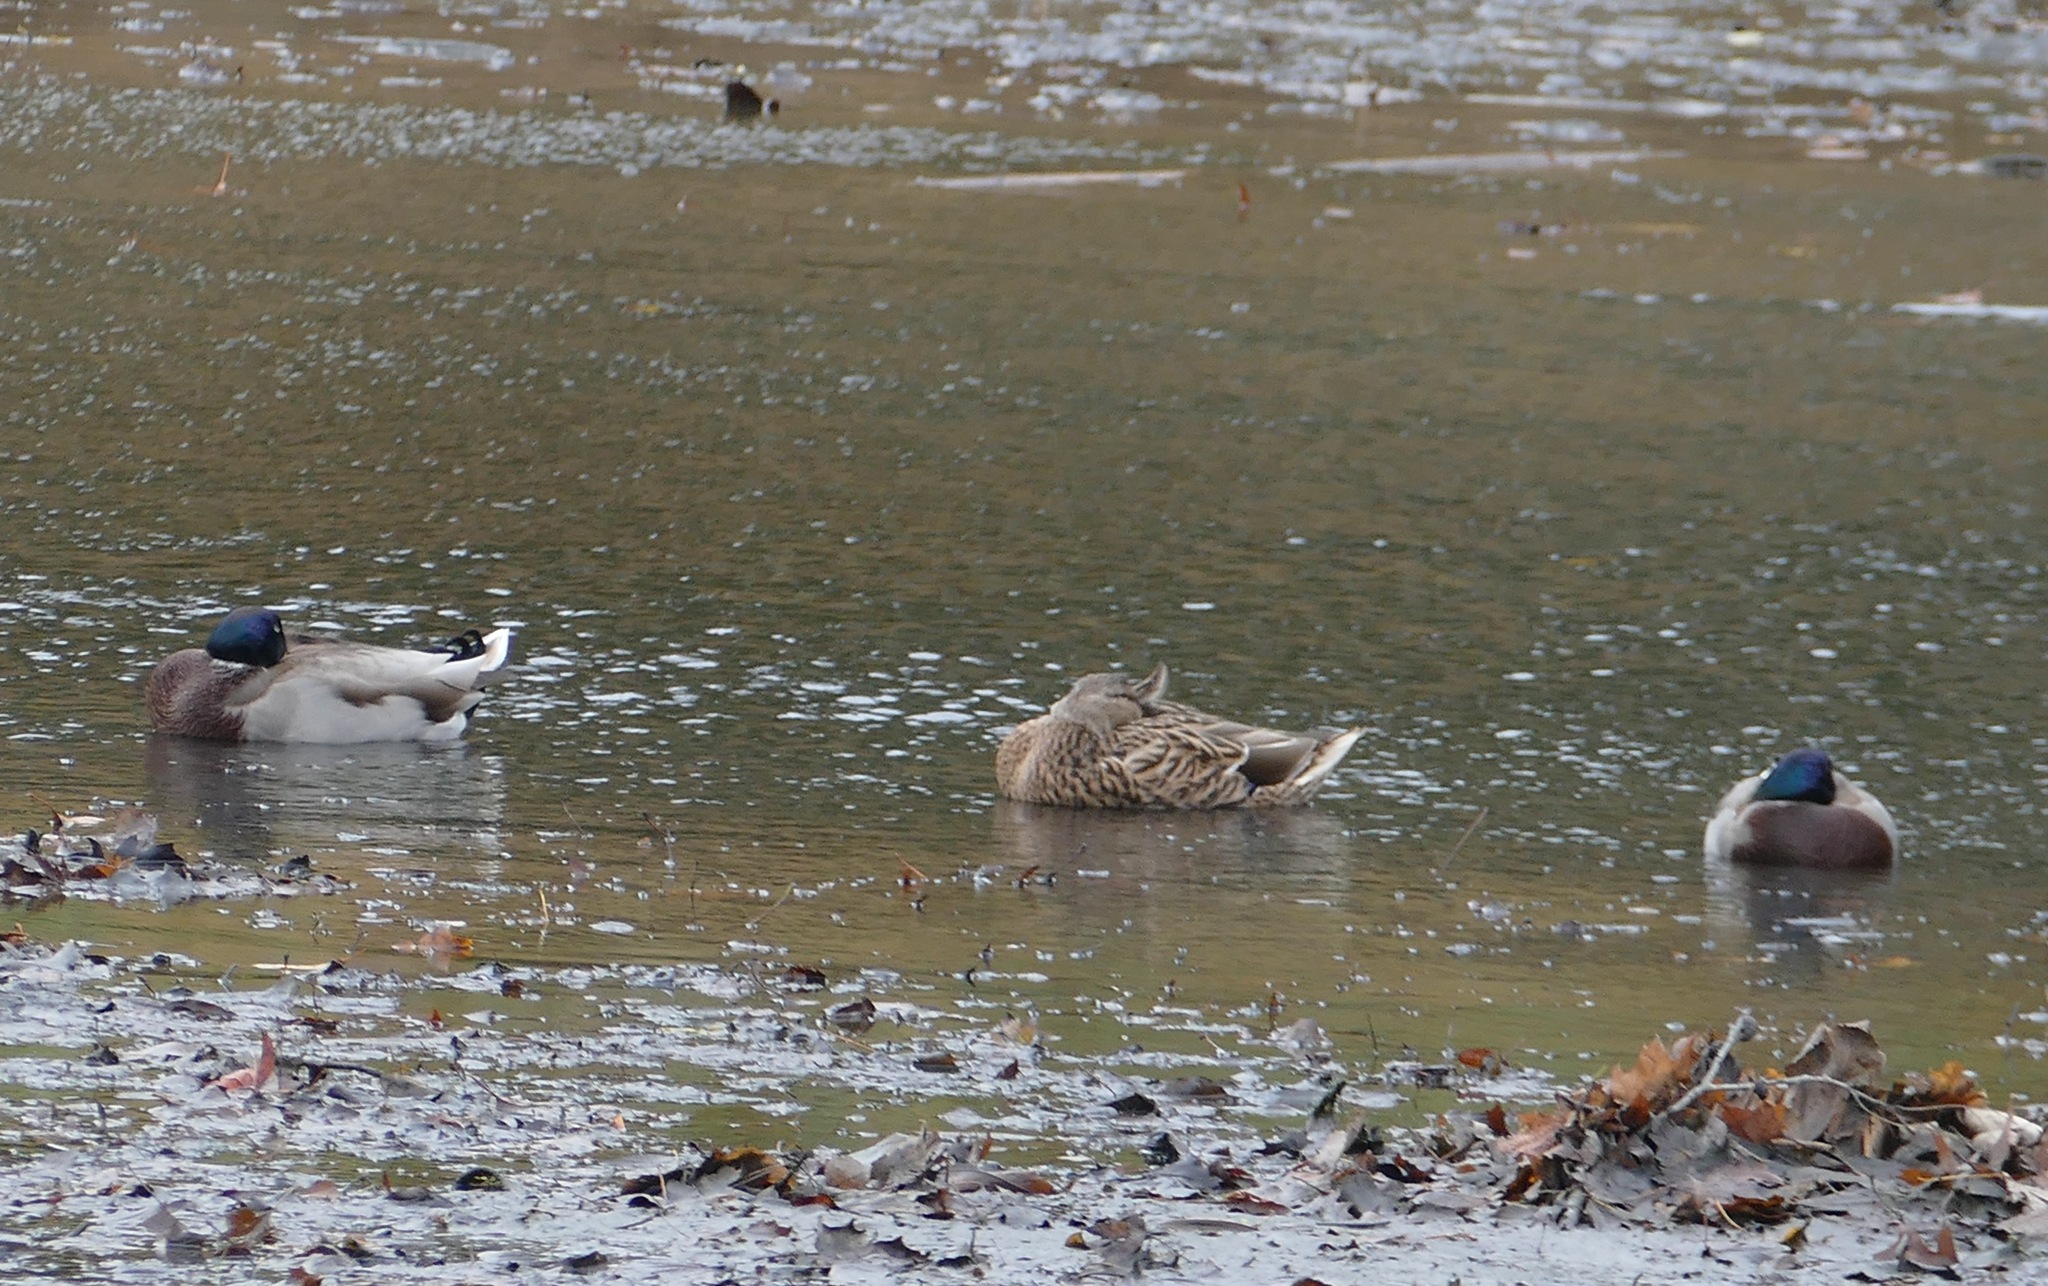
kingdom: Animalia
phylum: Chordata
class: Aves
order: Anseriformes
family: Anatidae
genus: Anas
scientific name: Anas platyrhynchos
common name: Mallard
